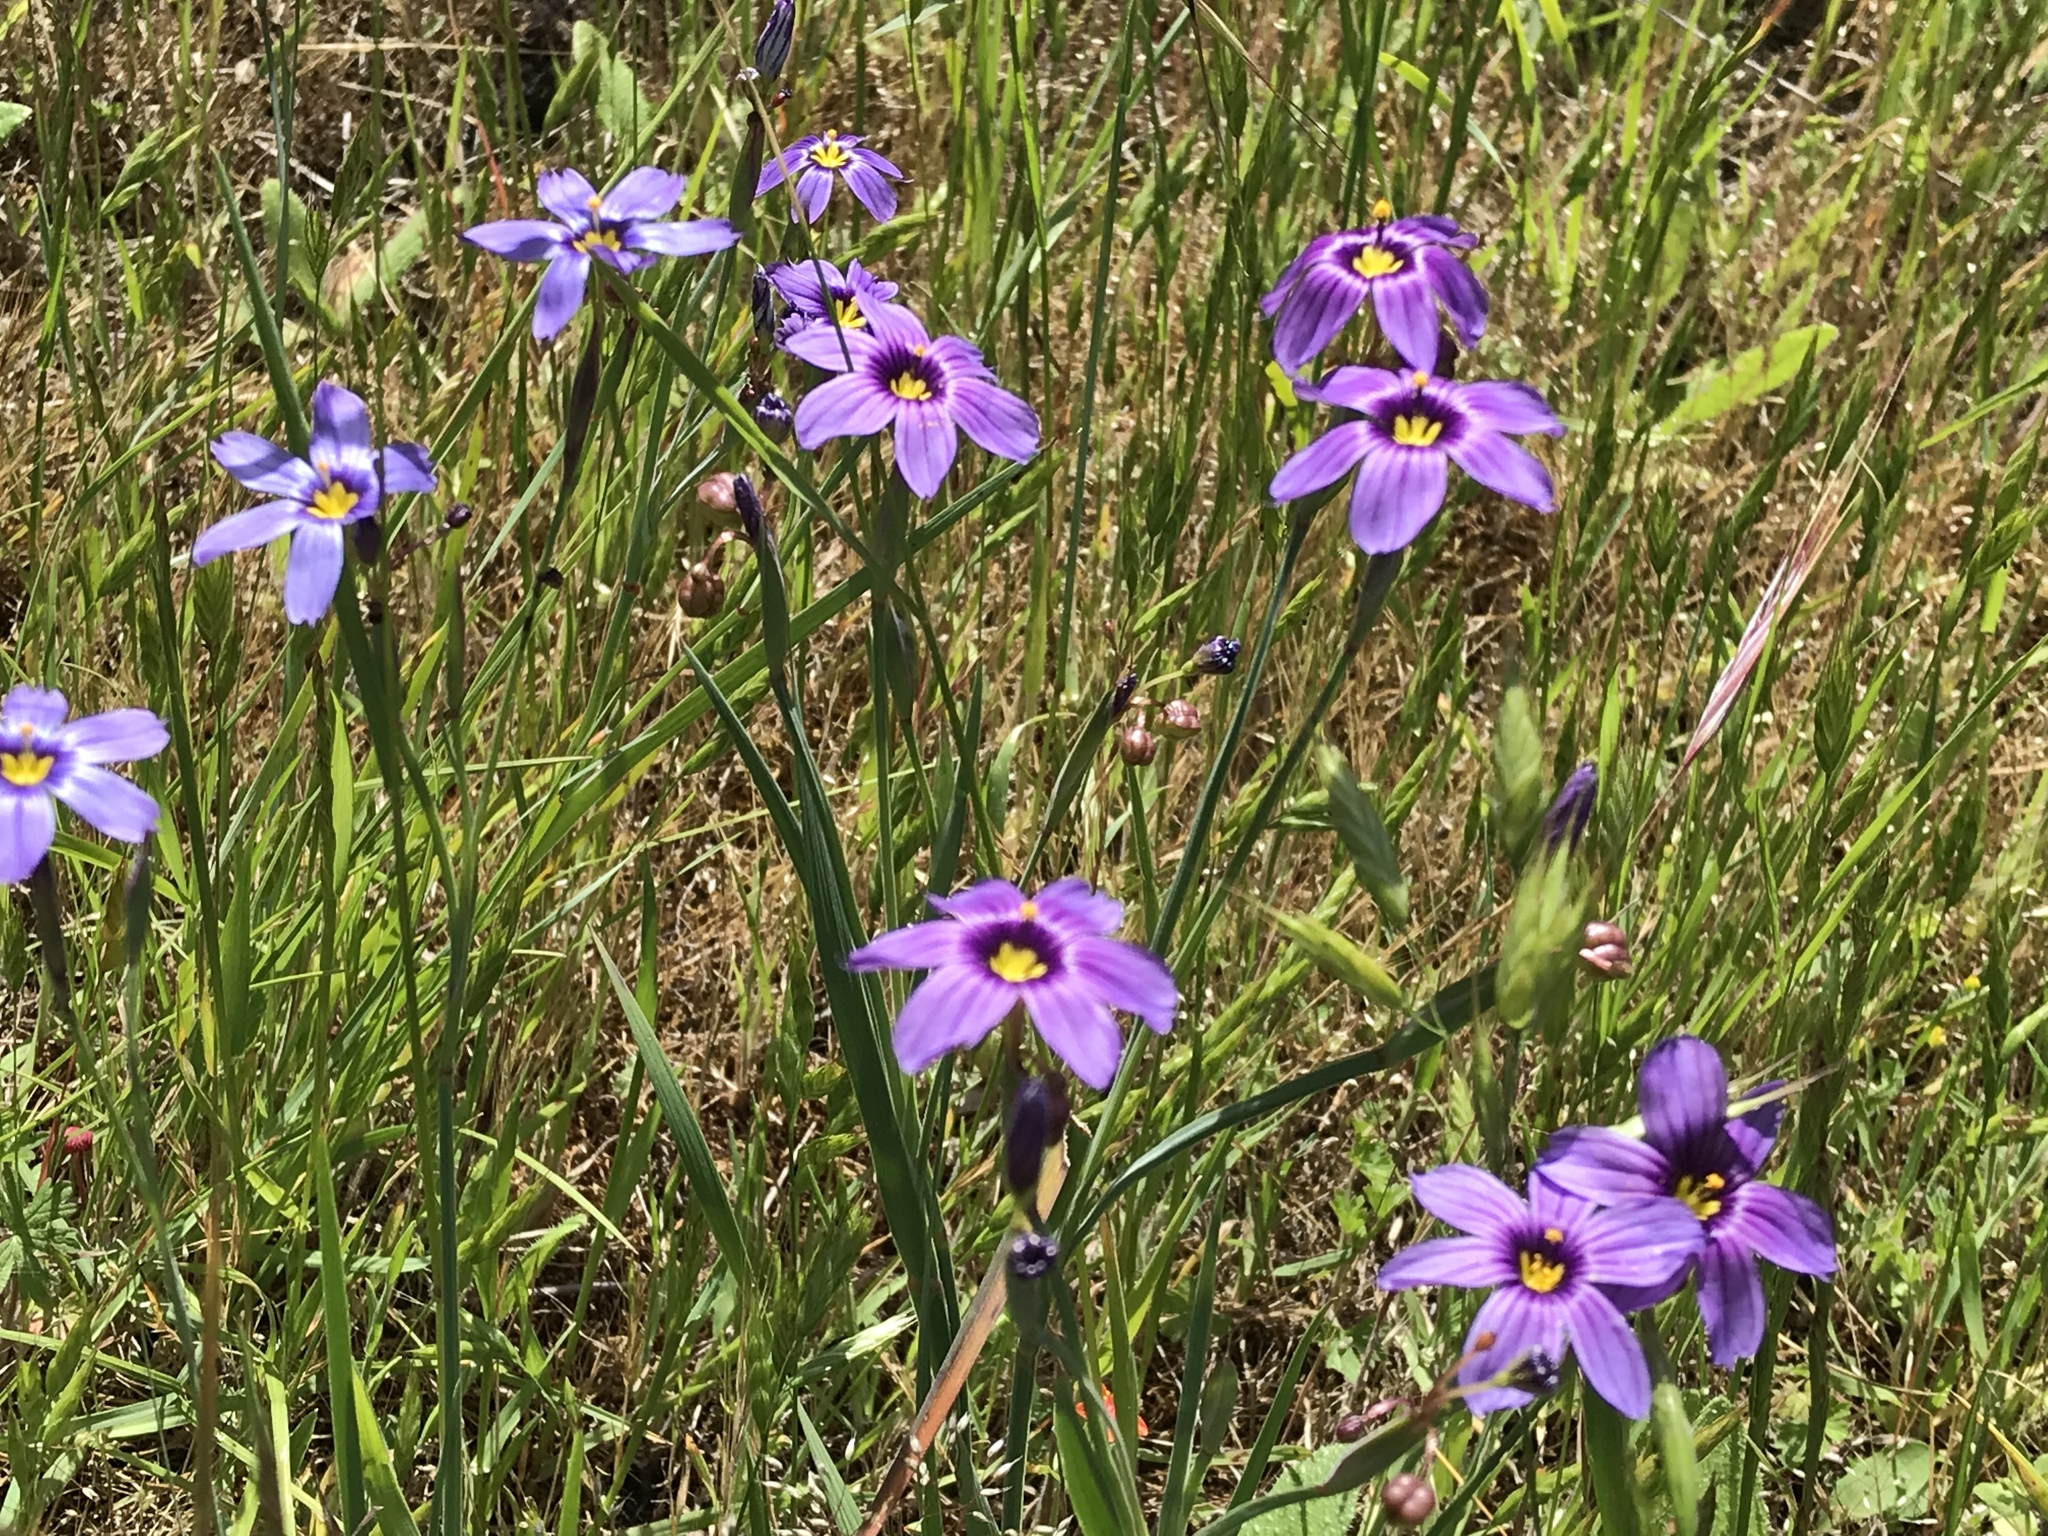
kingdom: Plantae
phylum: Tracheophyta
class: Liliopsida
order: Asparagales
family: Iridaceae
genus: Sisyrinchium
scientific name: Sisyrinchium bellum
